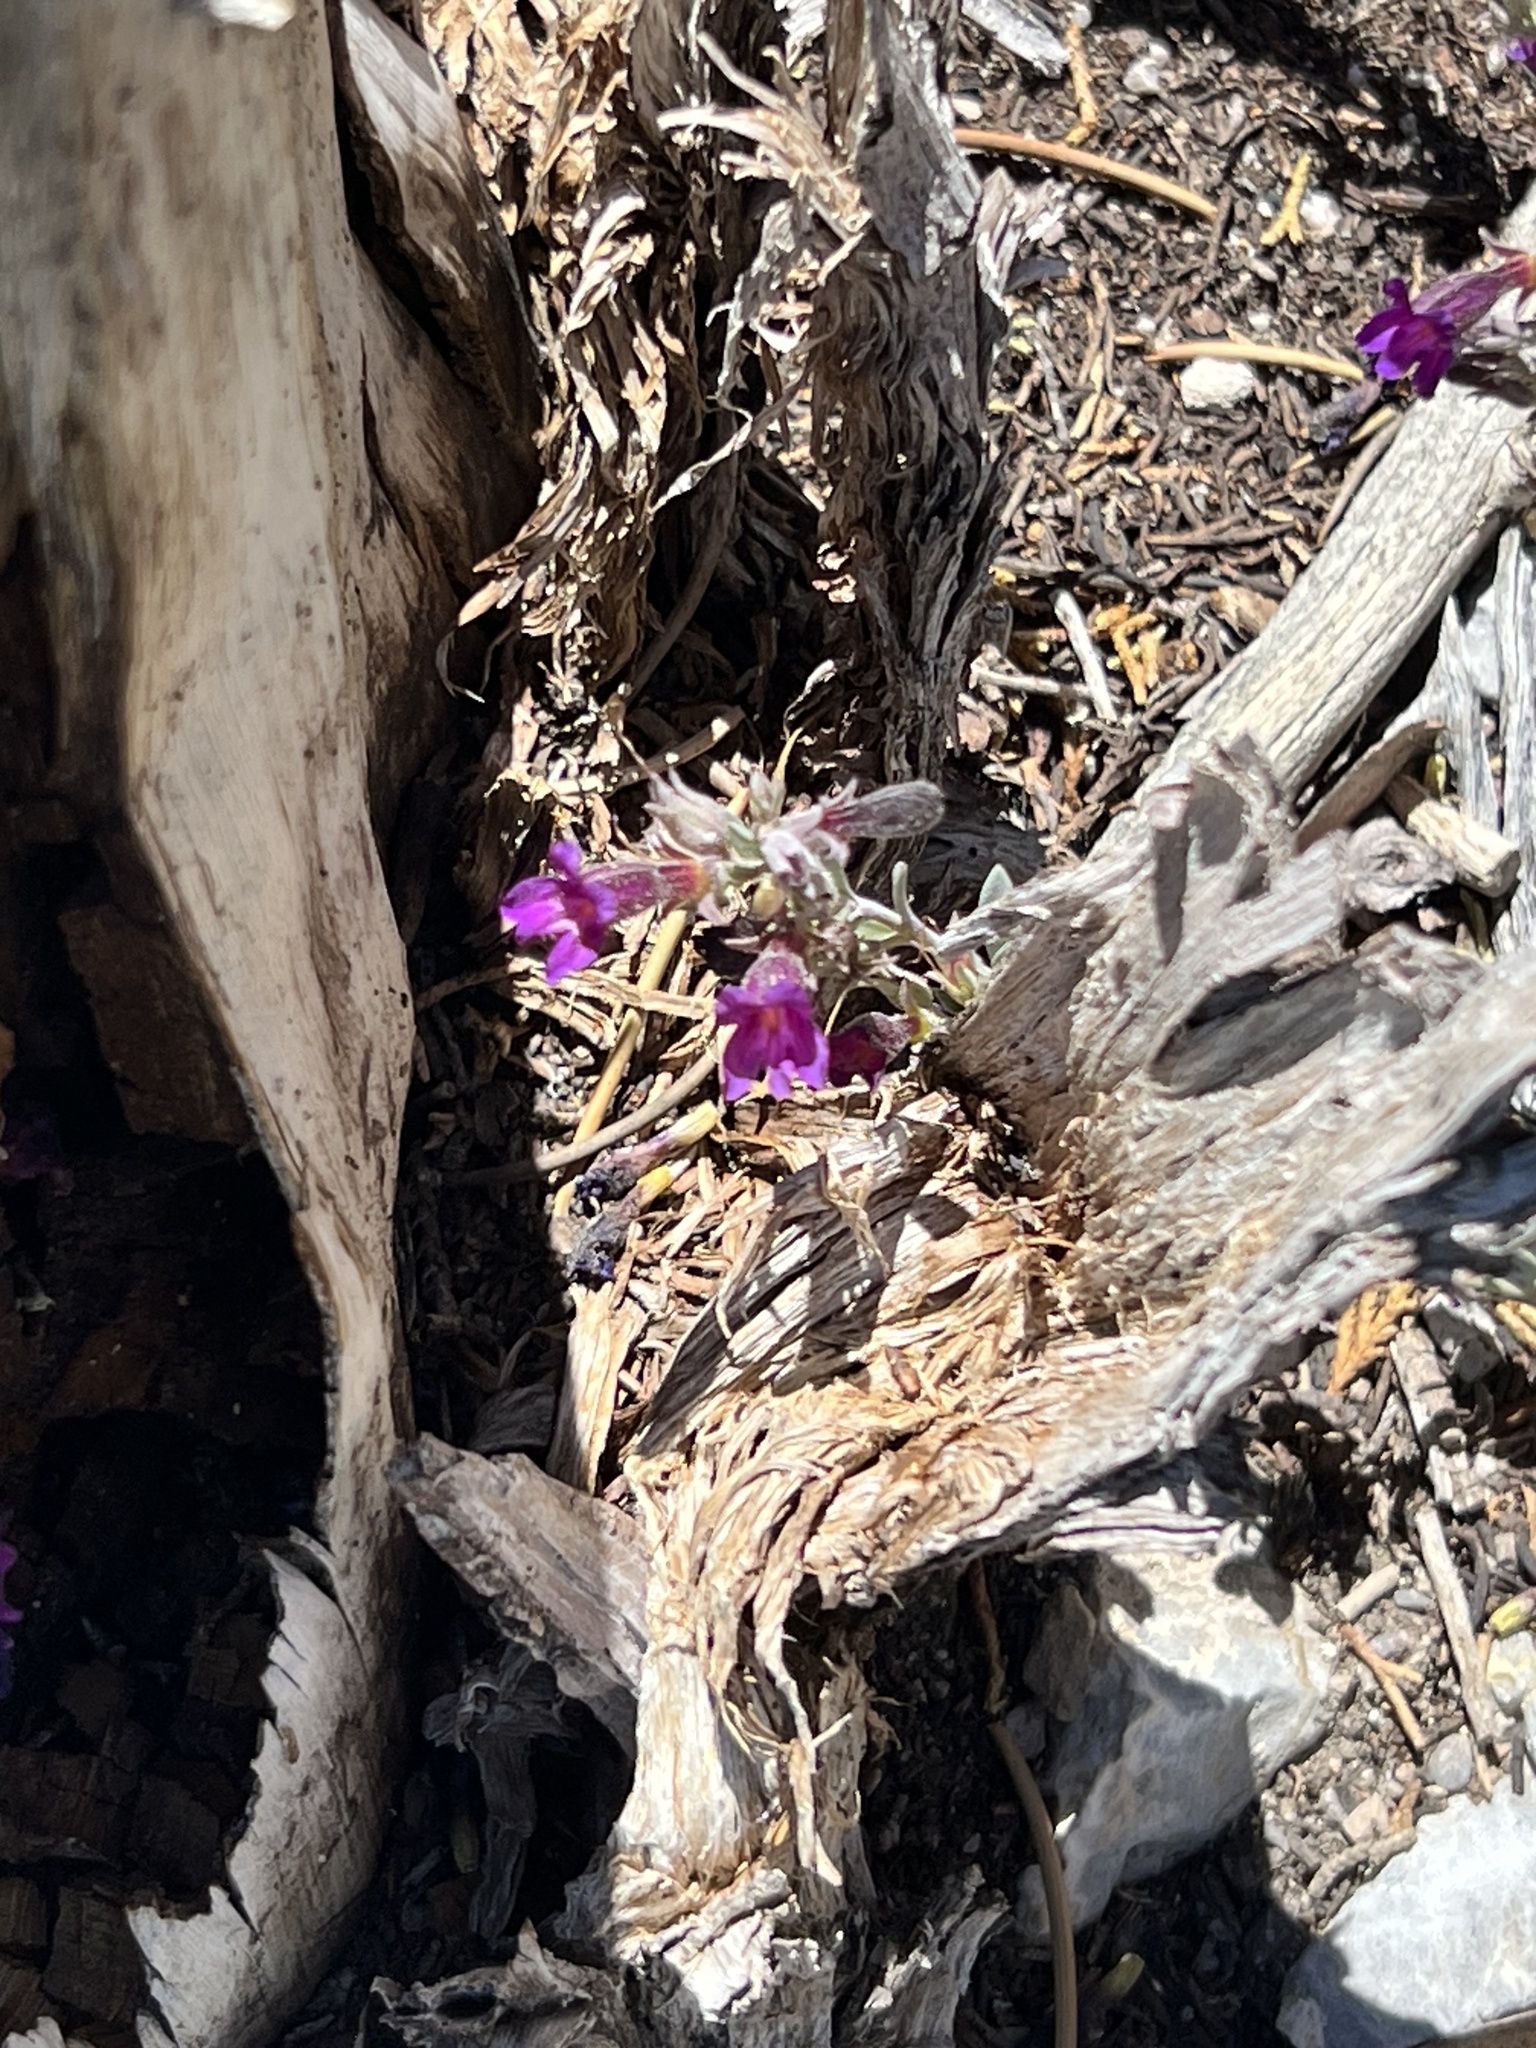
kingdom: Plantae
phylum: Tracheophyta
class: Magnoliopsida
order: Lamiales
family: Plantaginaceae
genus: Penstemon
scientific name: Penstemon thompsoniae
